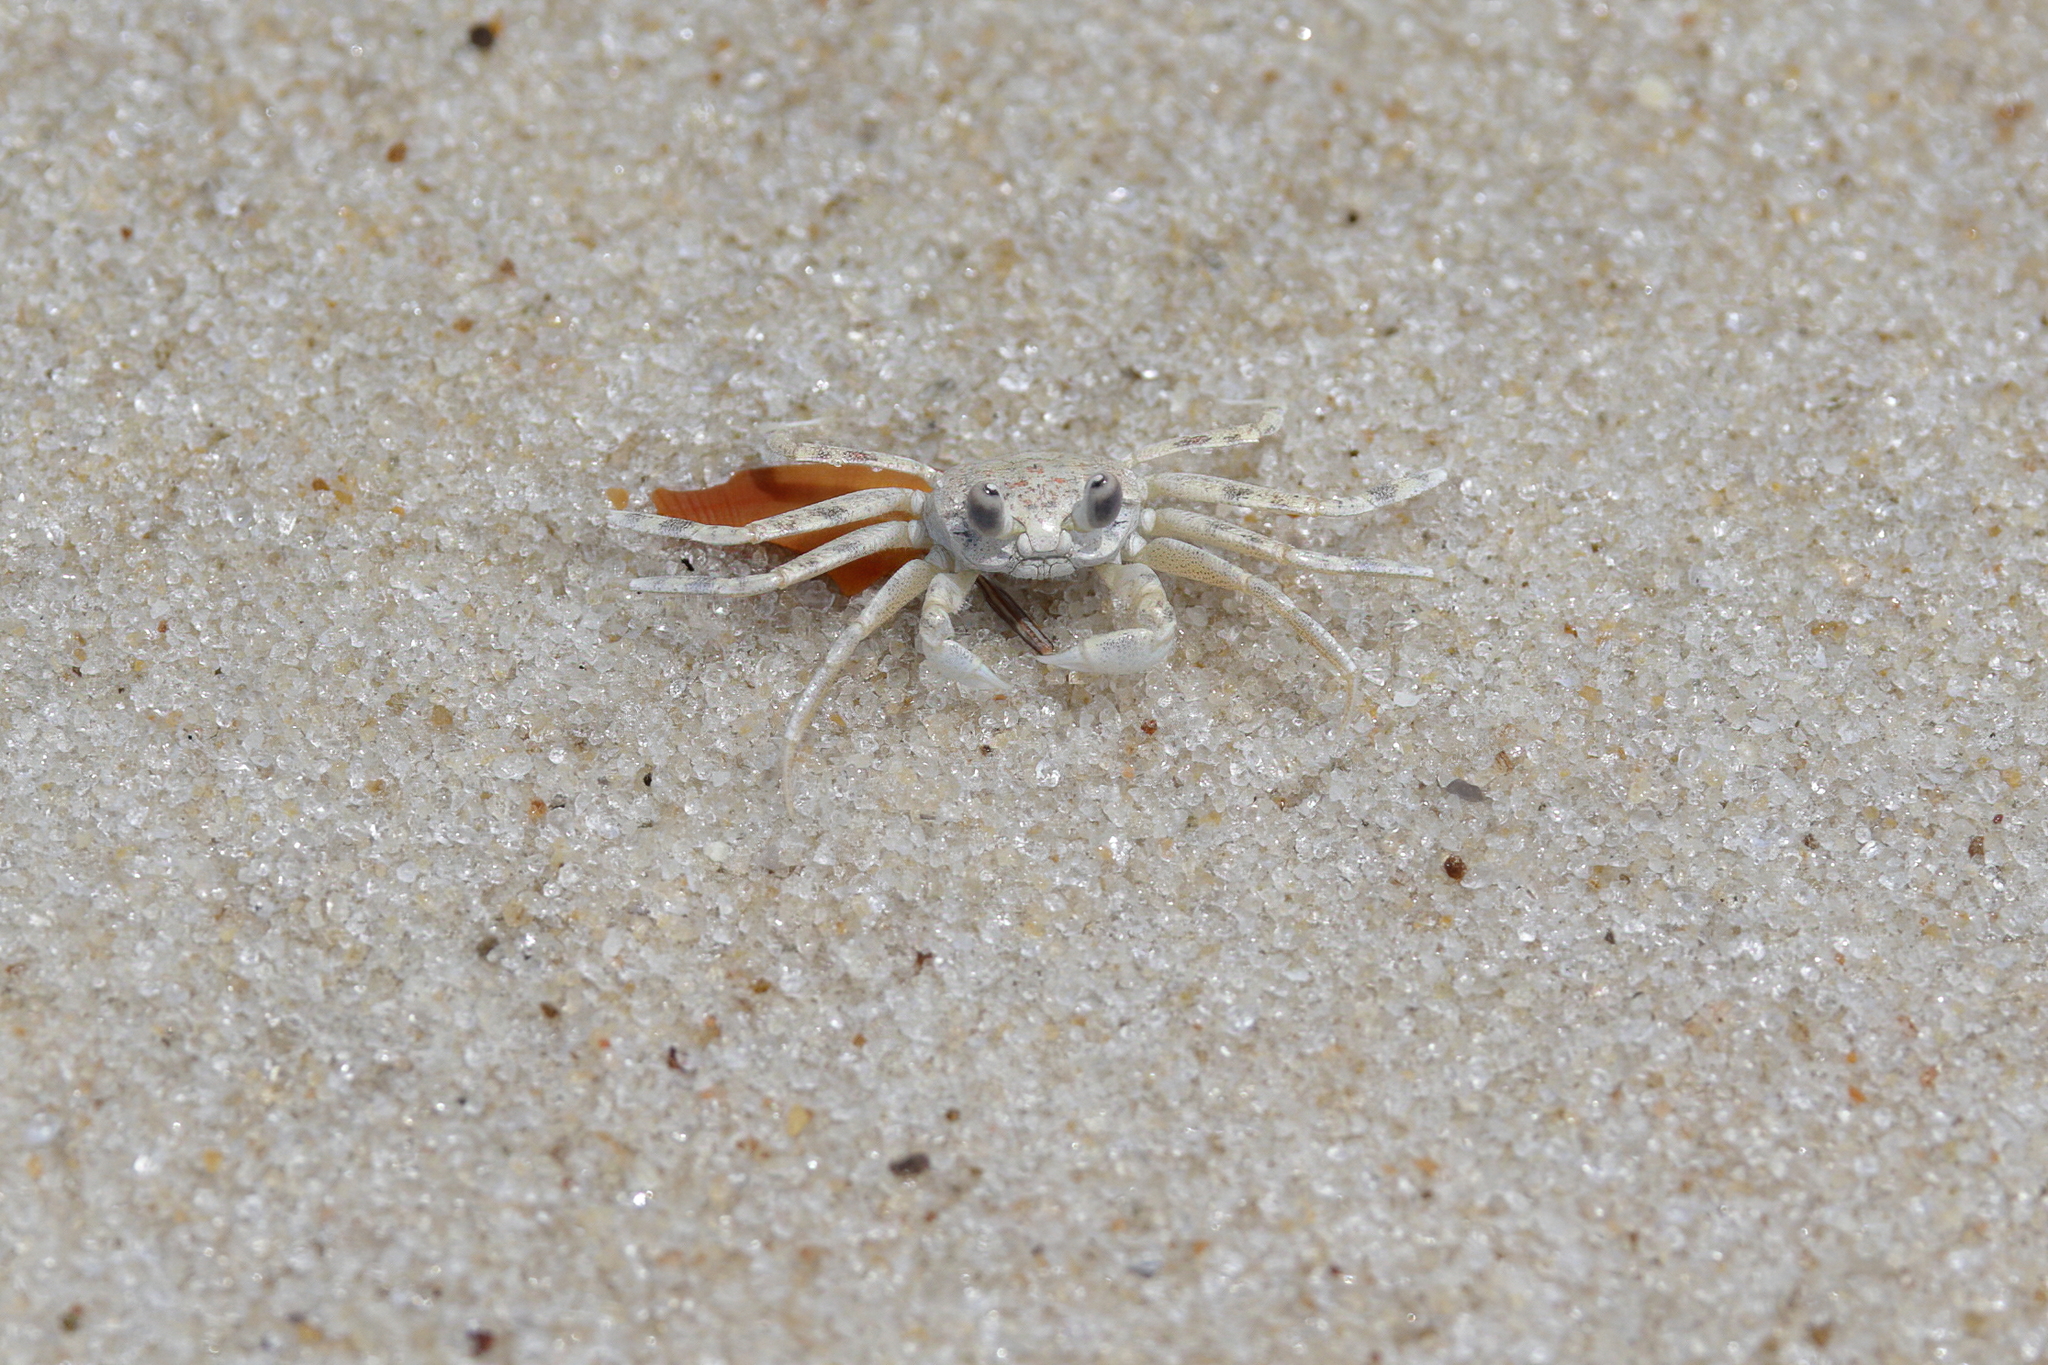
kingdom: Animalia
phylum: Arthropoda
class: Malacostraca
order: Decapoda
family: Ocypodidae
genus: Ocypode
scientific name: Ocypode quadrata
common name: Ghost crab
